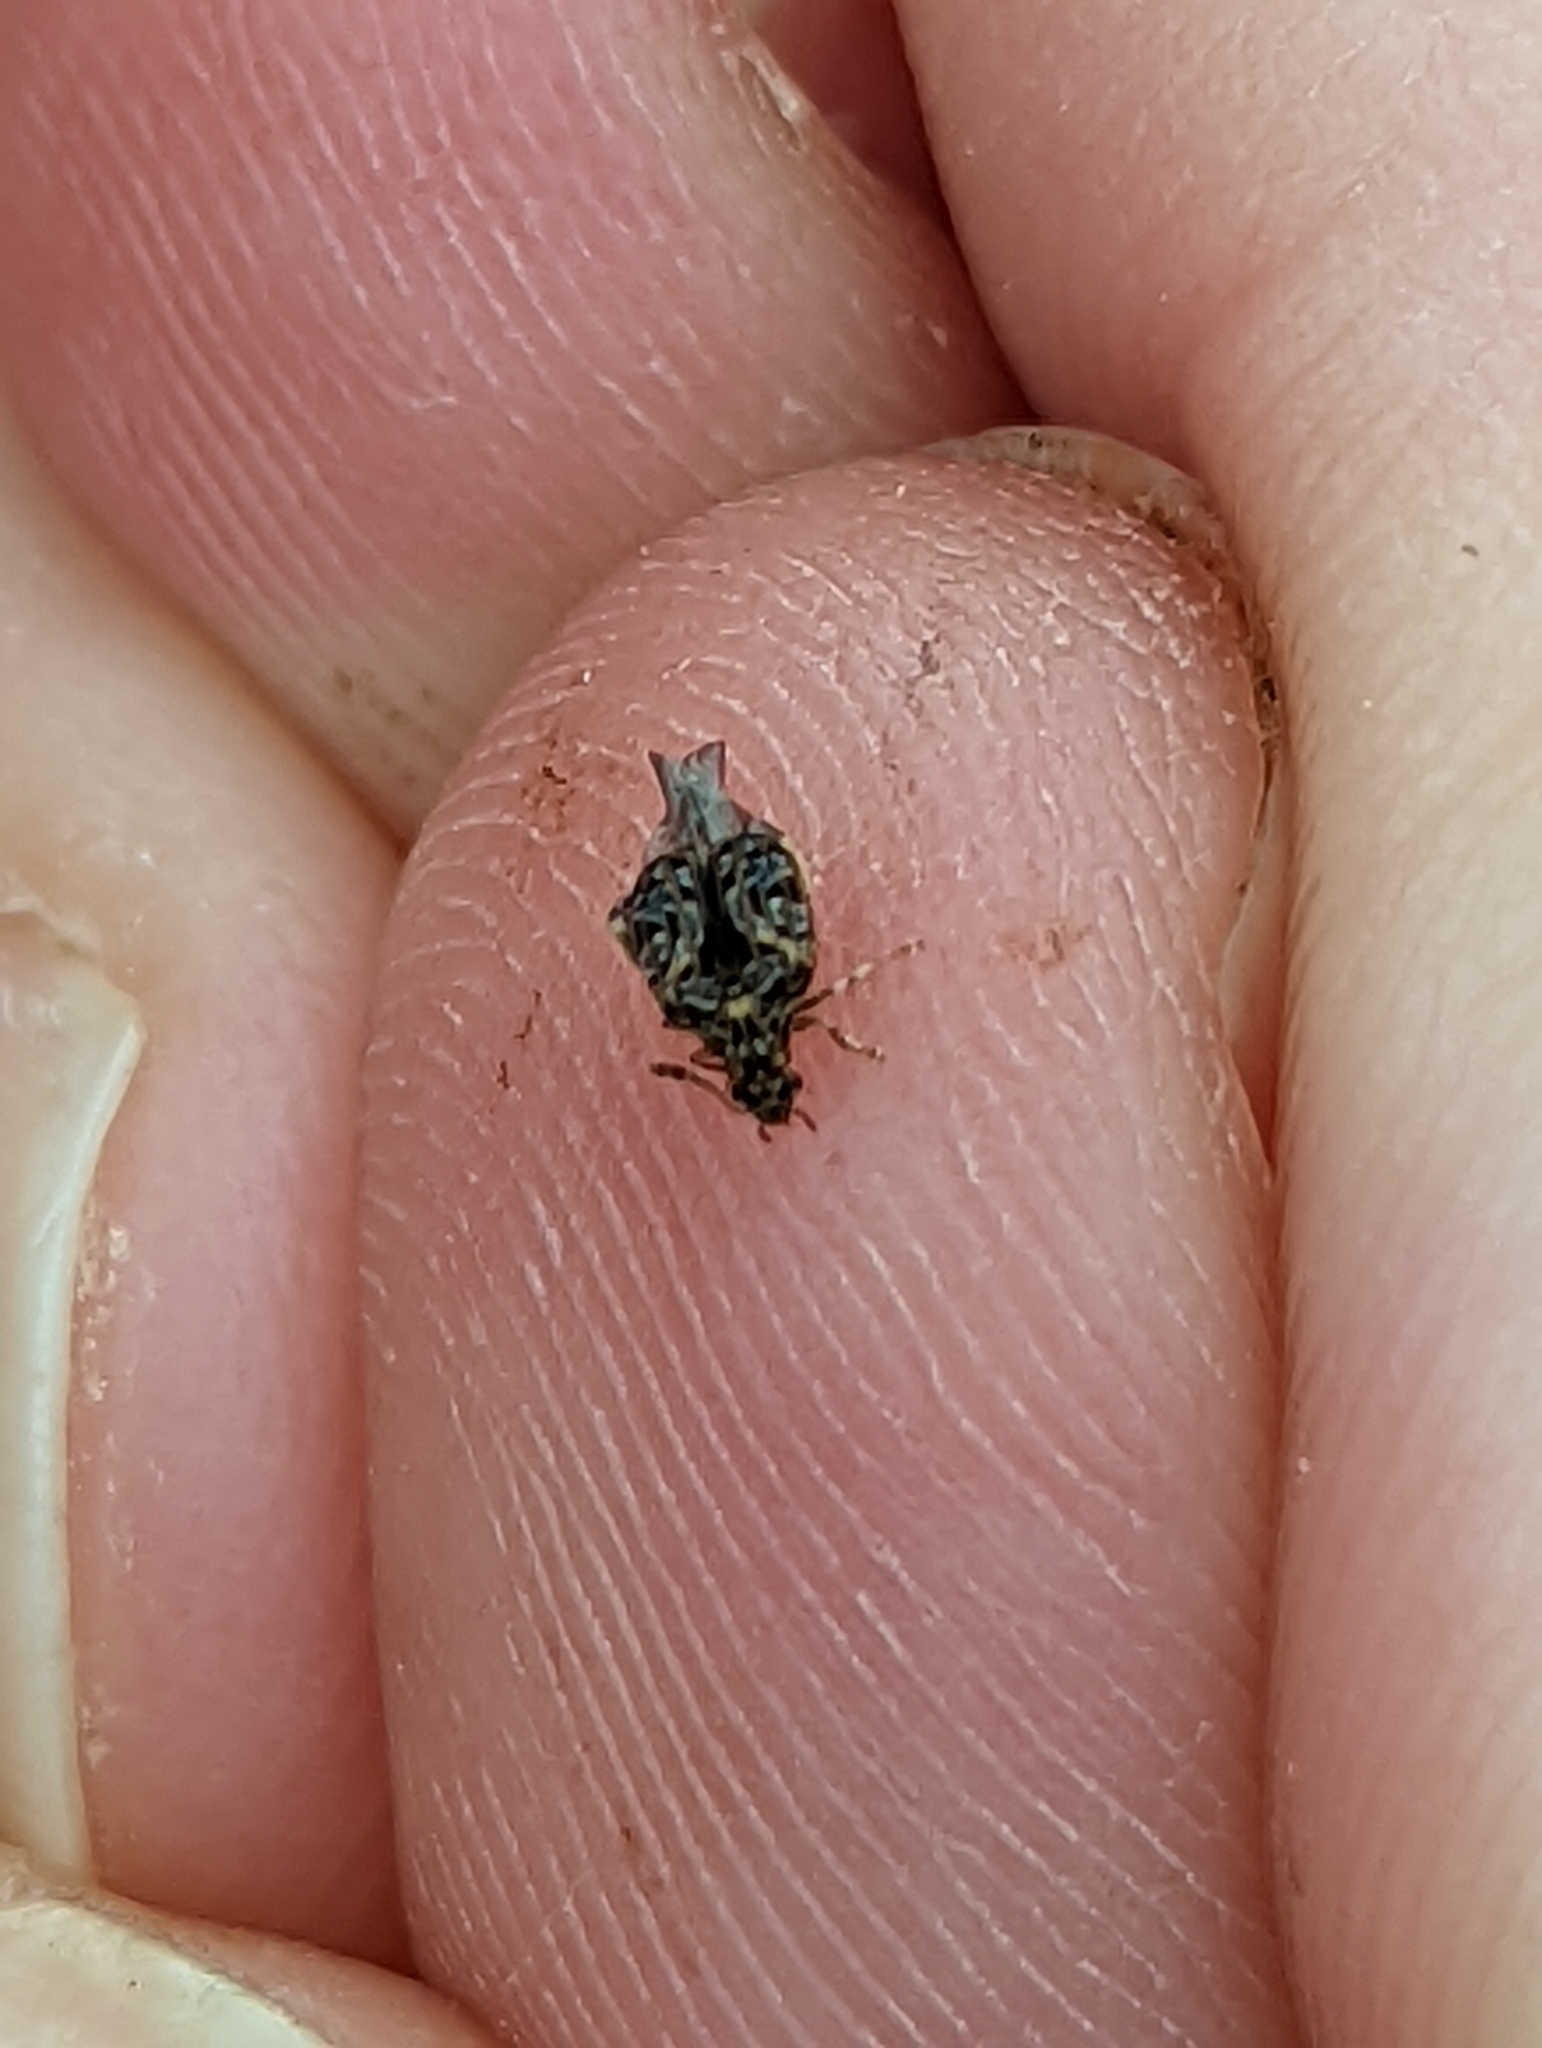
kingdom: Animalia
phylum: Arthropoda
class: Insecta
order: Coleoptera
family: Chrysomelidae
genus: Gibbobruchus
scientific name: Gibbobruchus mimus
